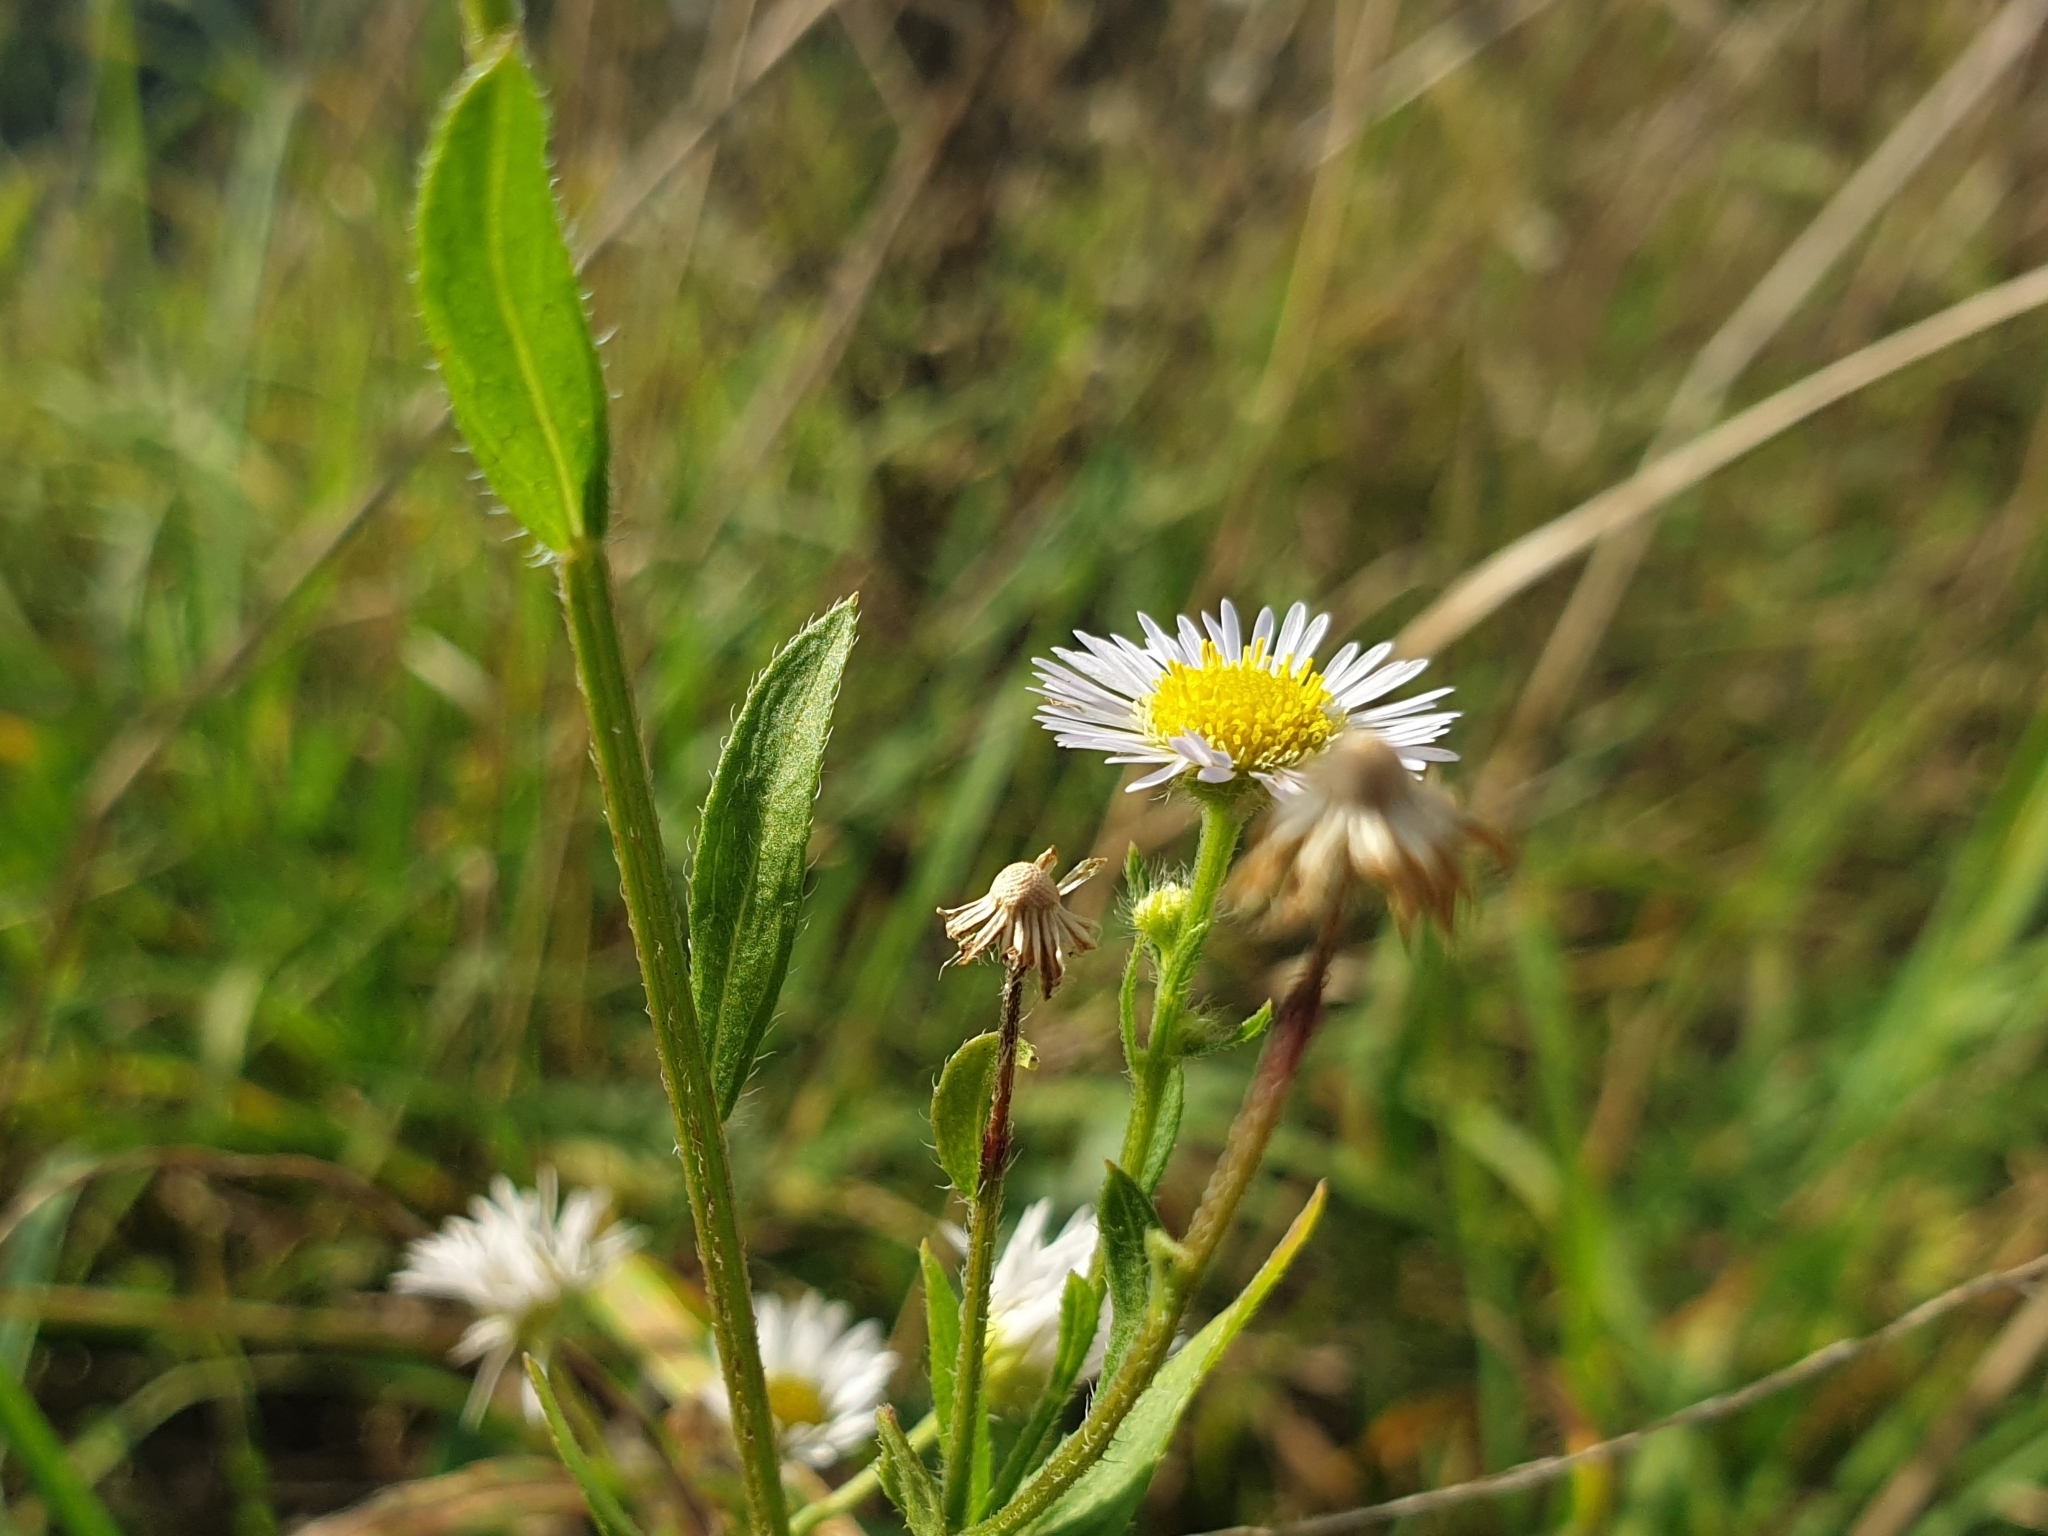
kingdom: Plantae
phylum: Tracheophyta
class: Magnoliopsida
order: Asterales
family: Asteraceae
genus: Erigeron
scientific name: Erigeron annuus
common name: Tall fleabane
